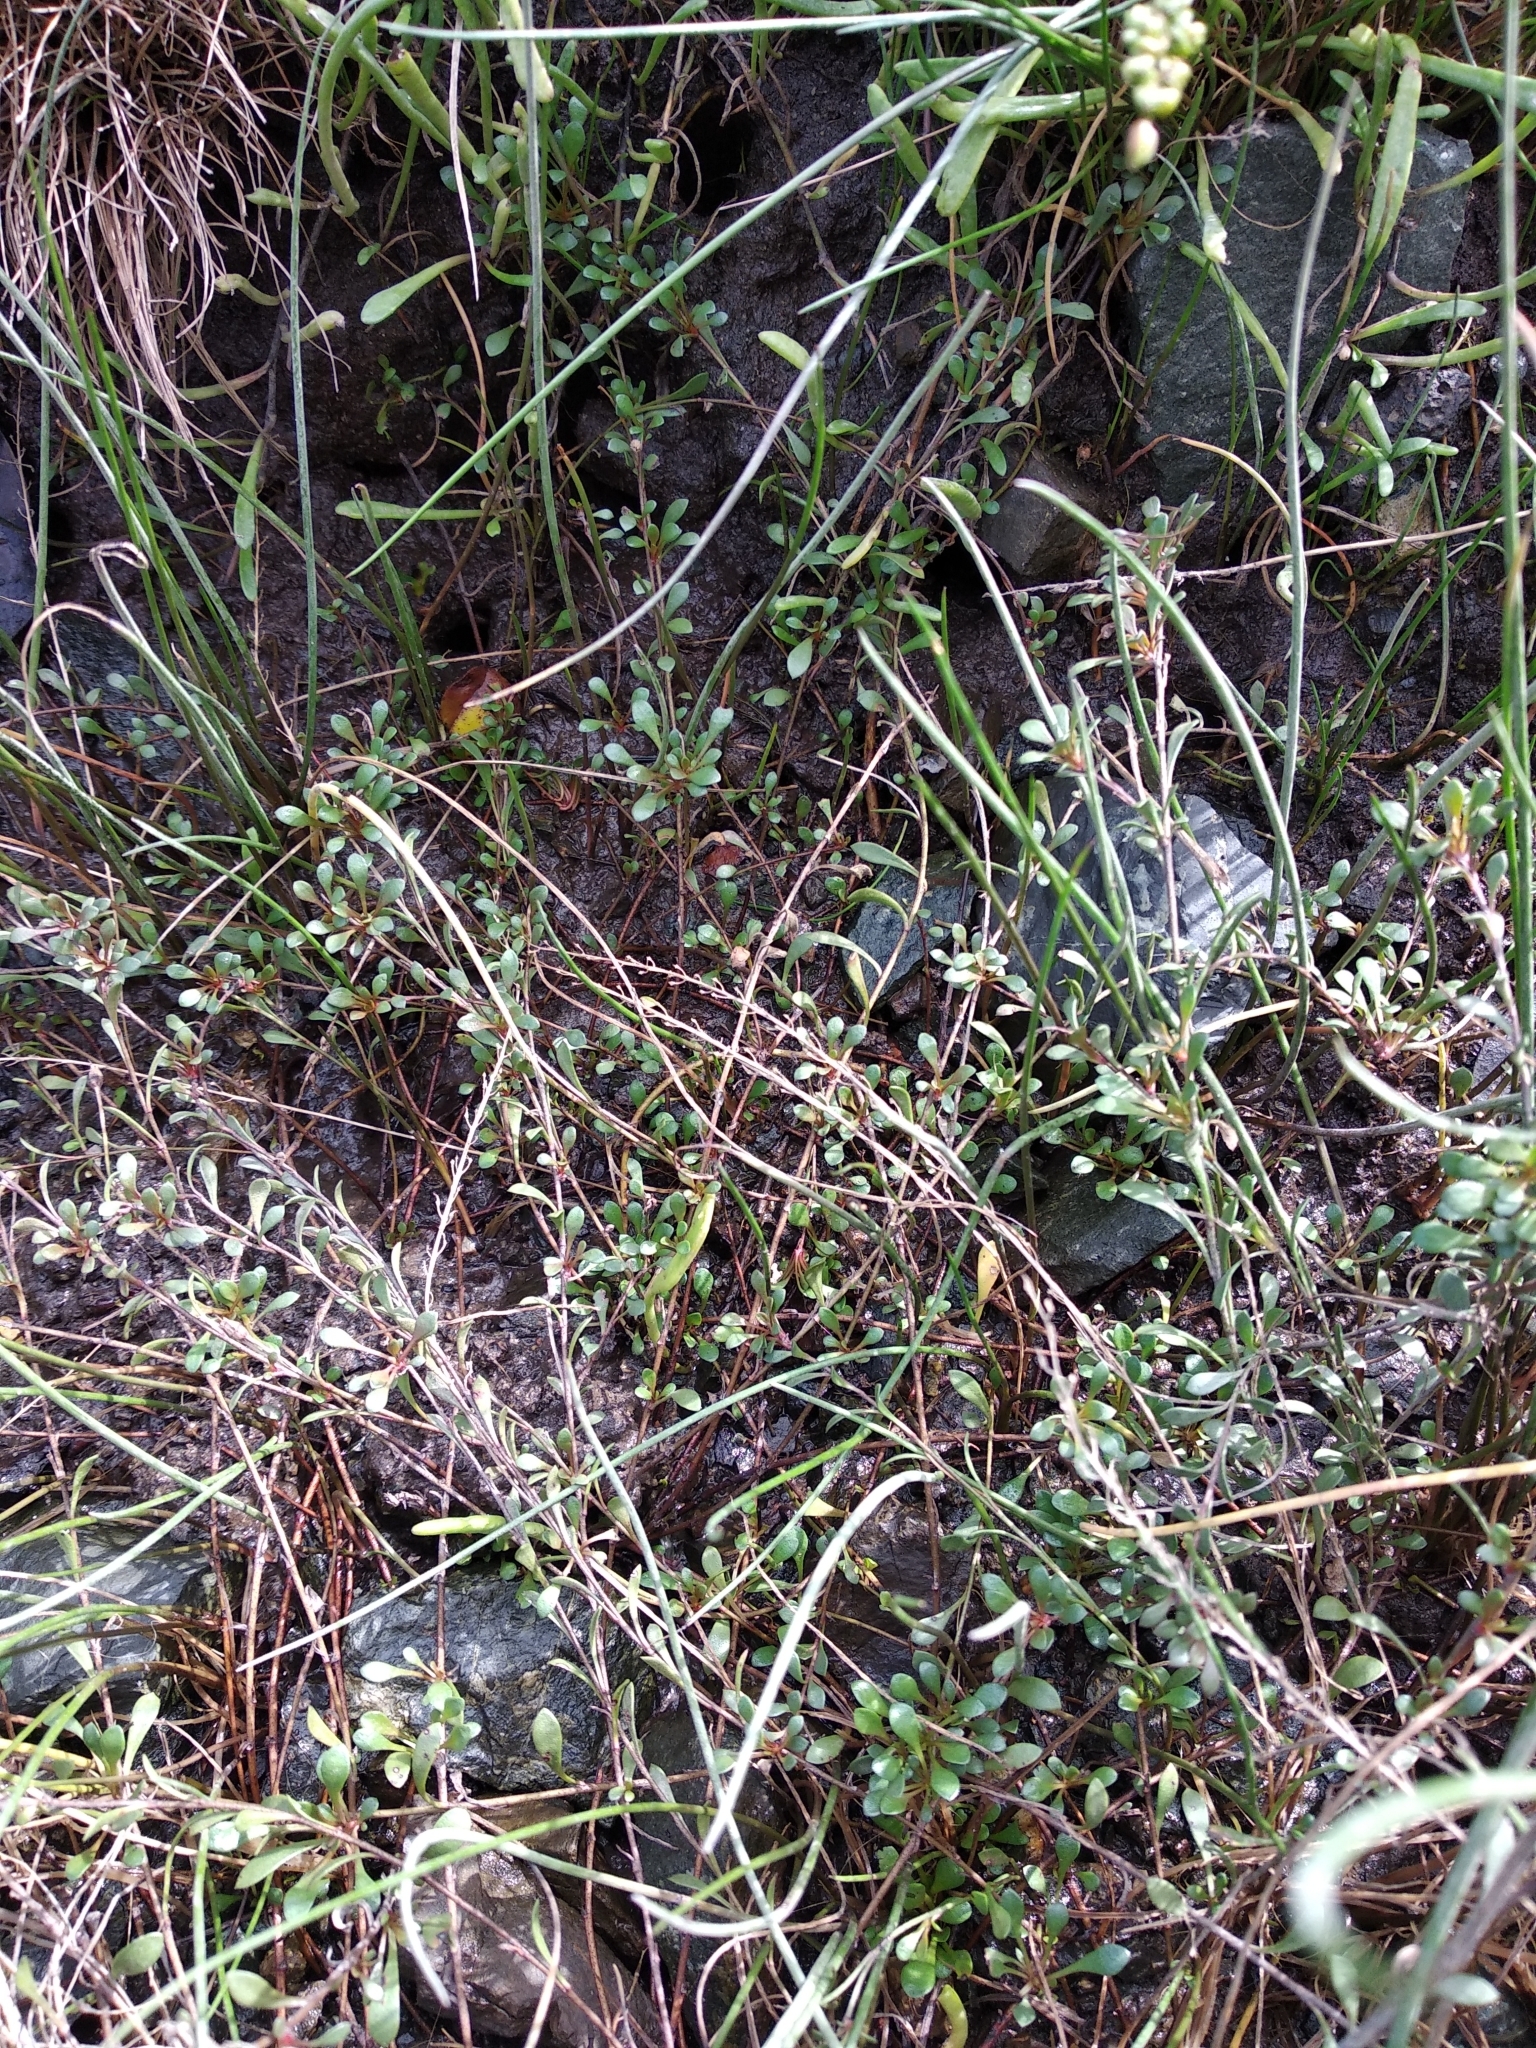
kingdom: Plantae
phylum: Tracheophyta
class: Magnoliopsida
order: Ericales
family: Primulaceae
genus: Samolus
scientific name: Samolus repens
